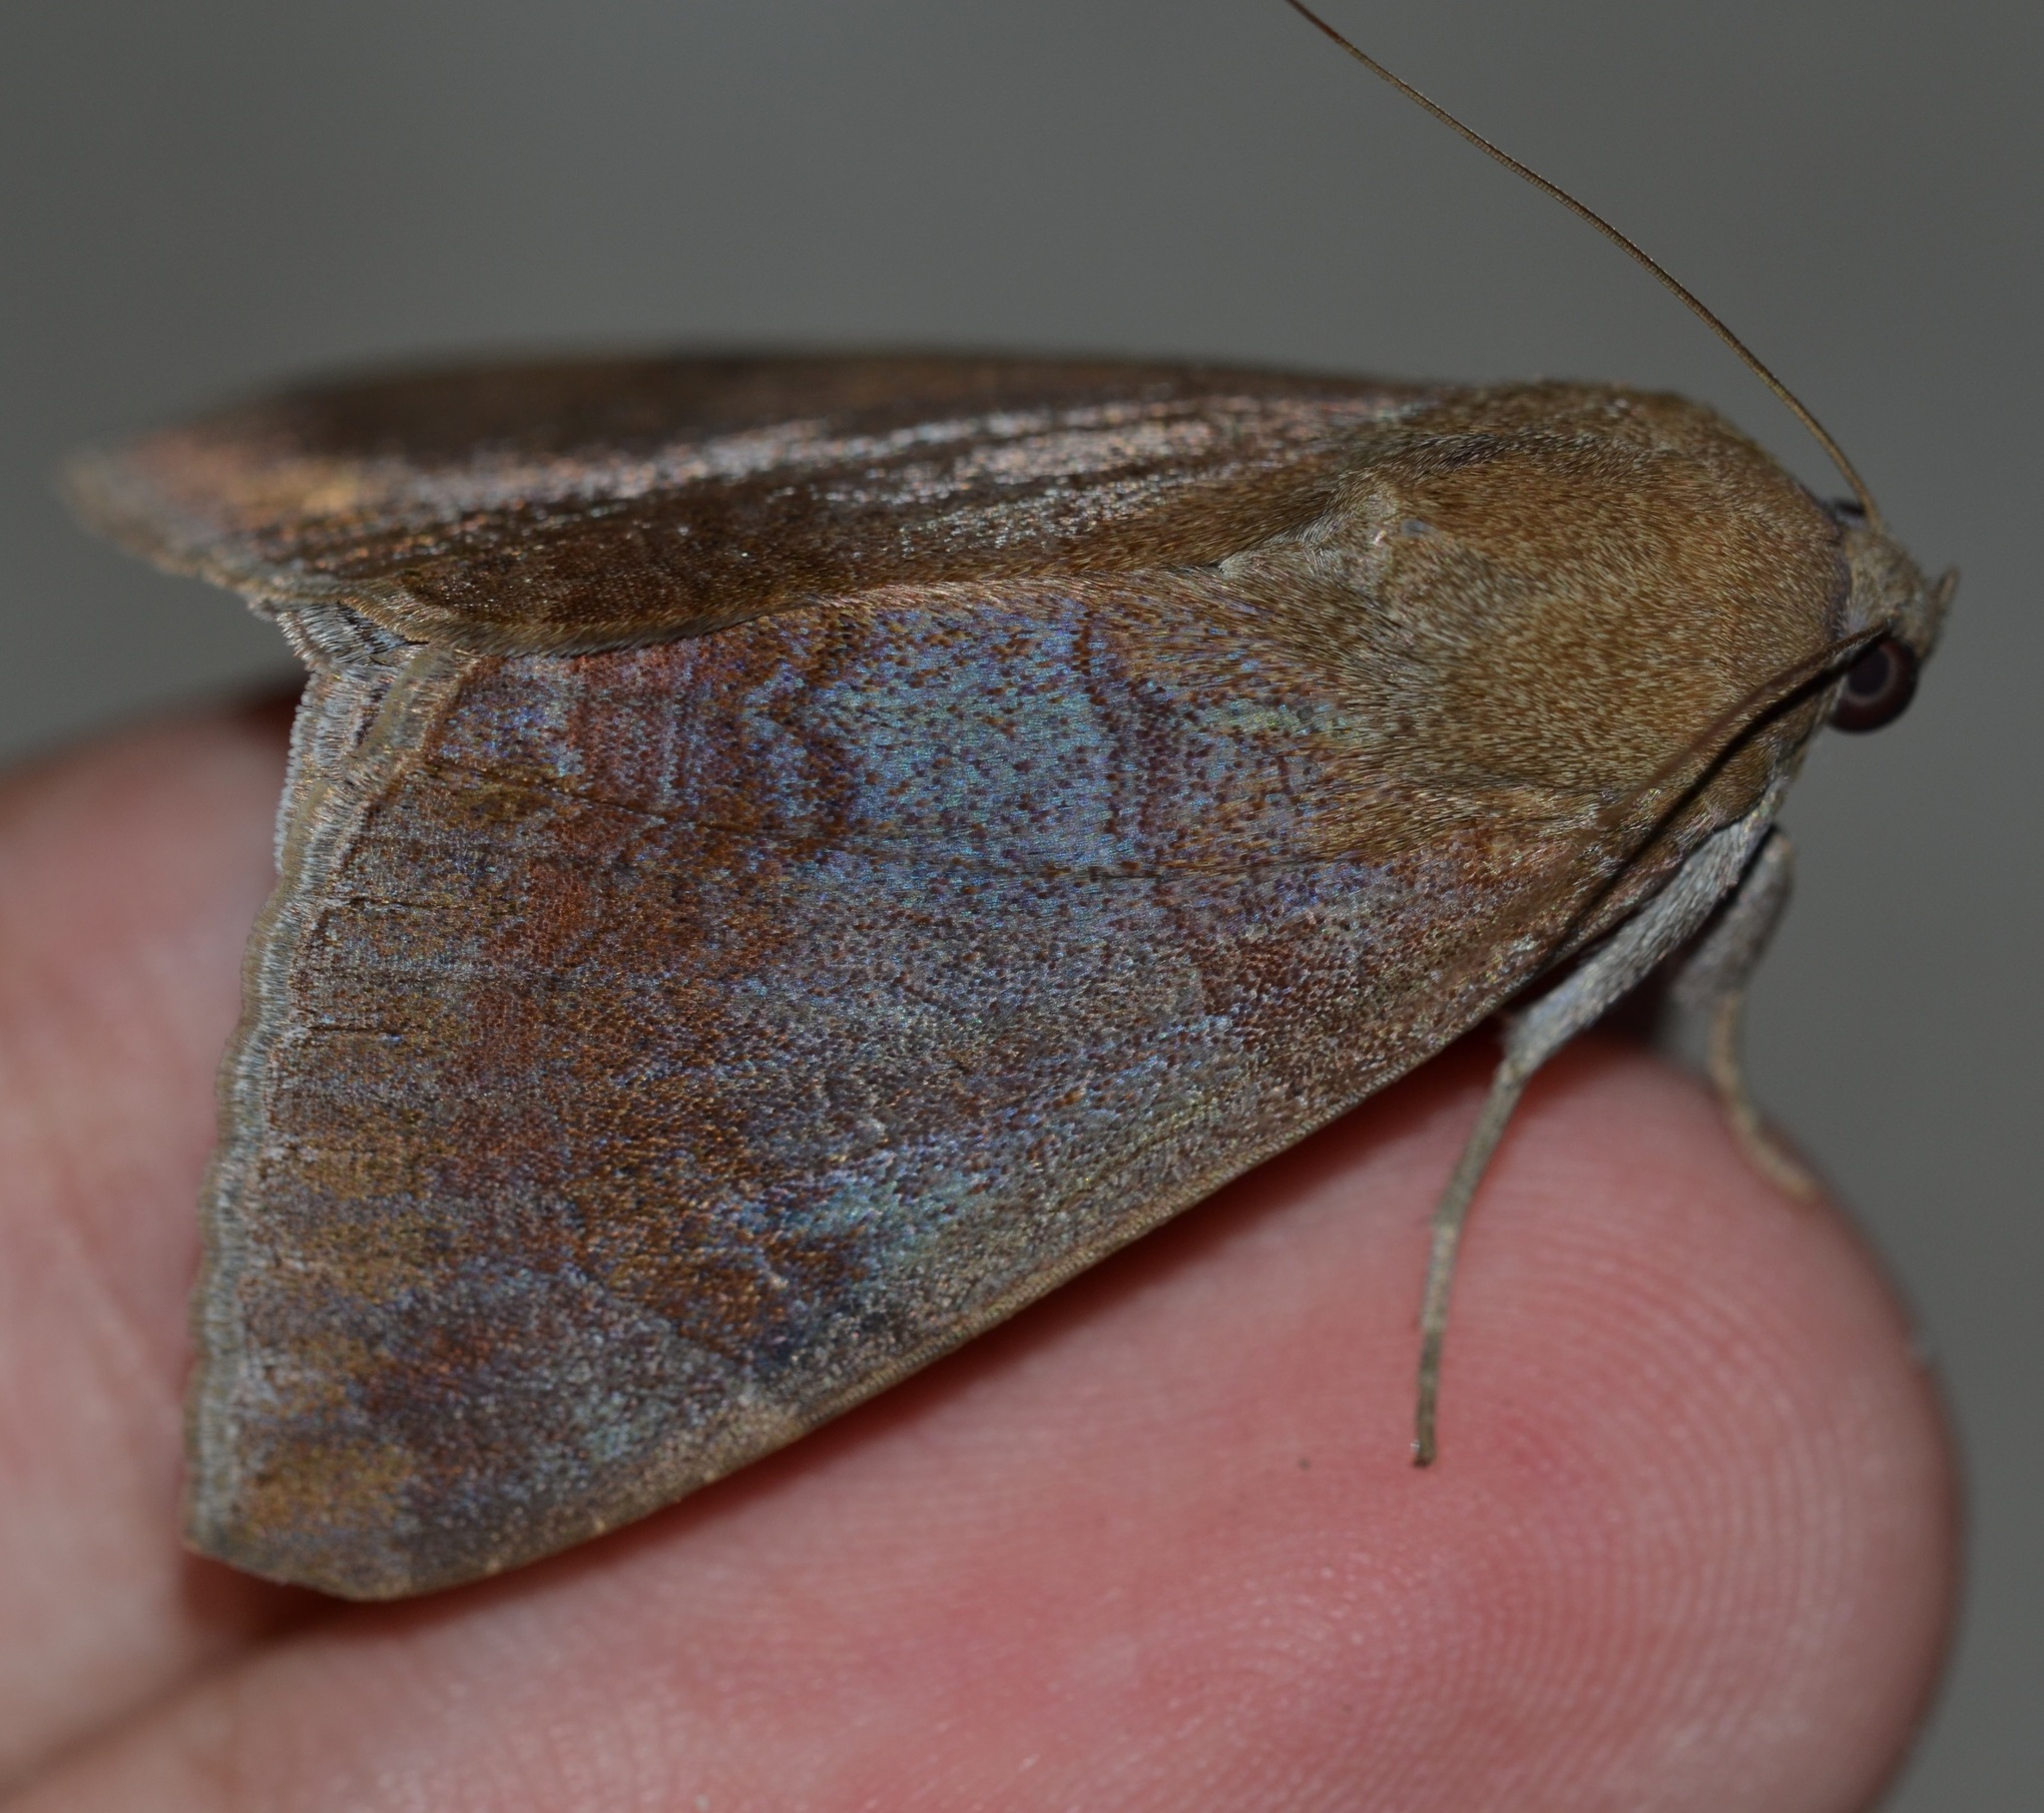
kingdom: Animalia
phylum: Arthropoda
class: Insecta
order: Lepidoptera
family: Erebidae
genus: Achaea
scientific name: Achaea janata
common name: Croton caterpillar
